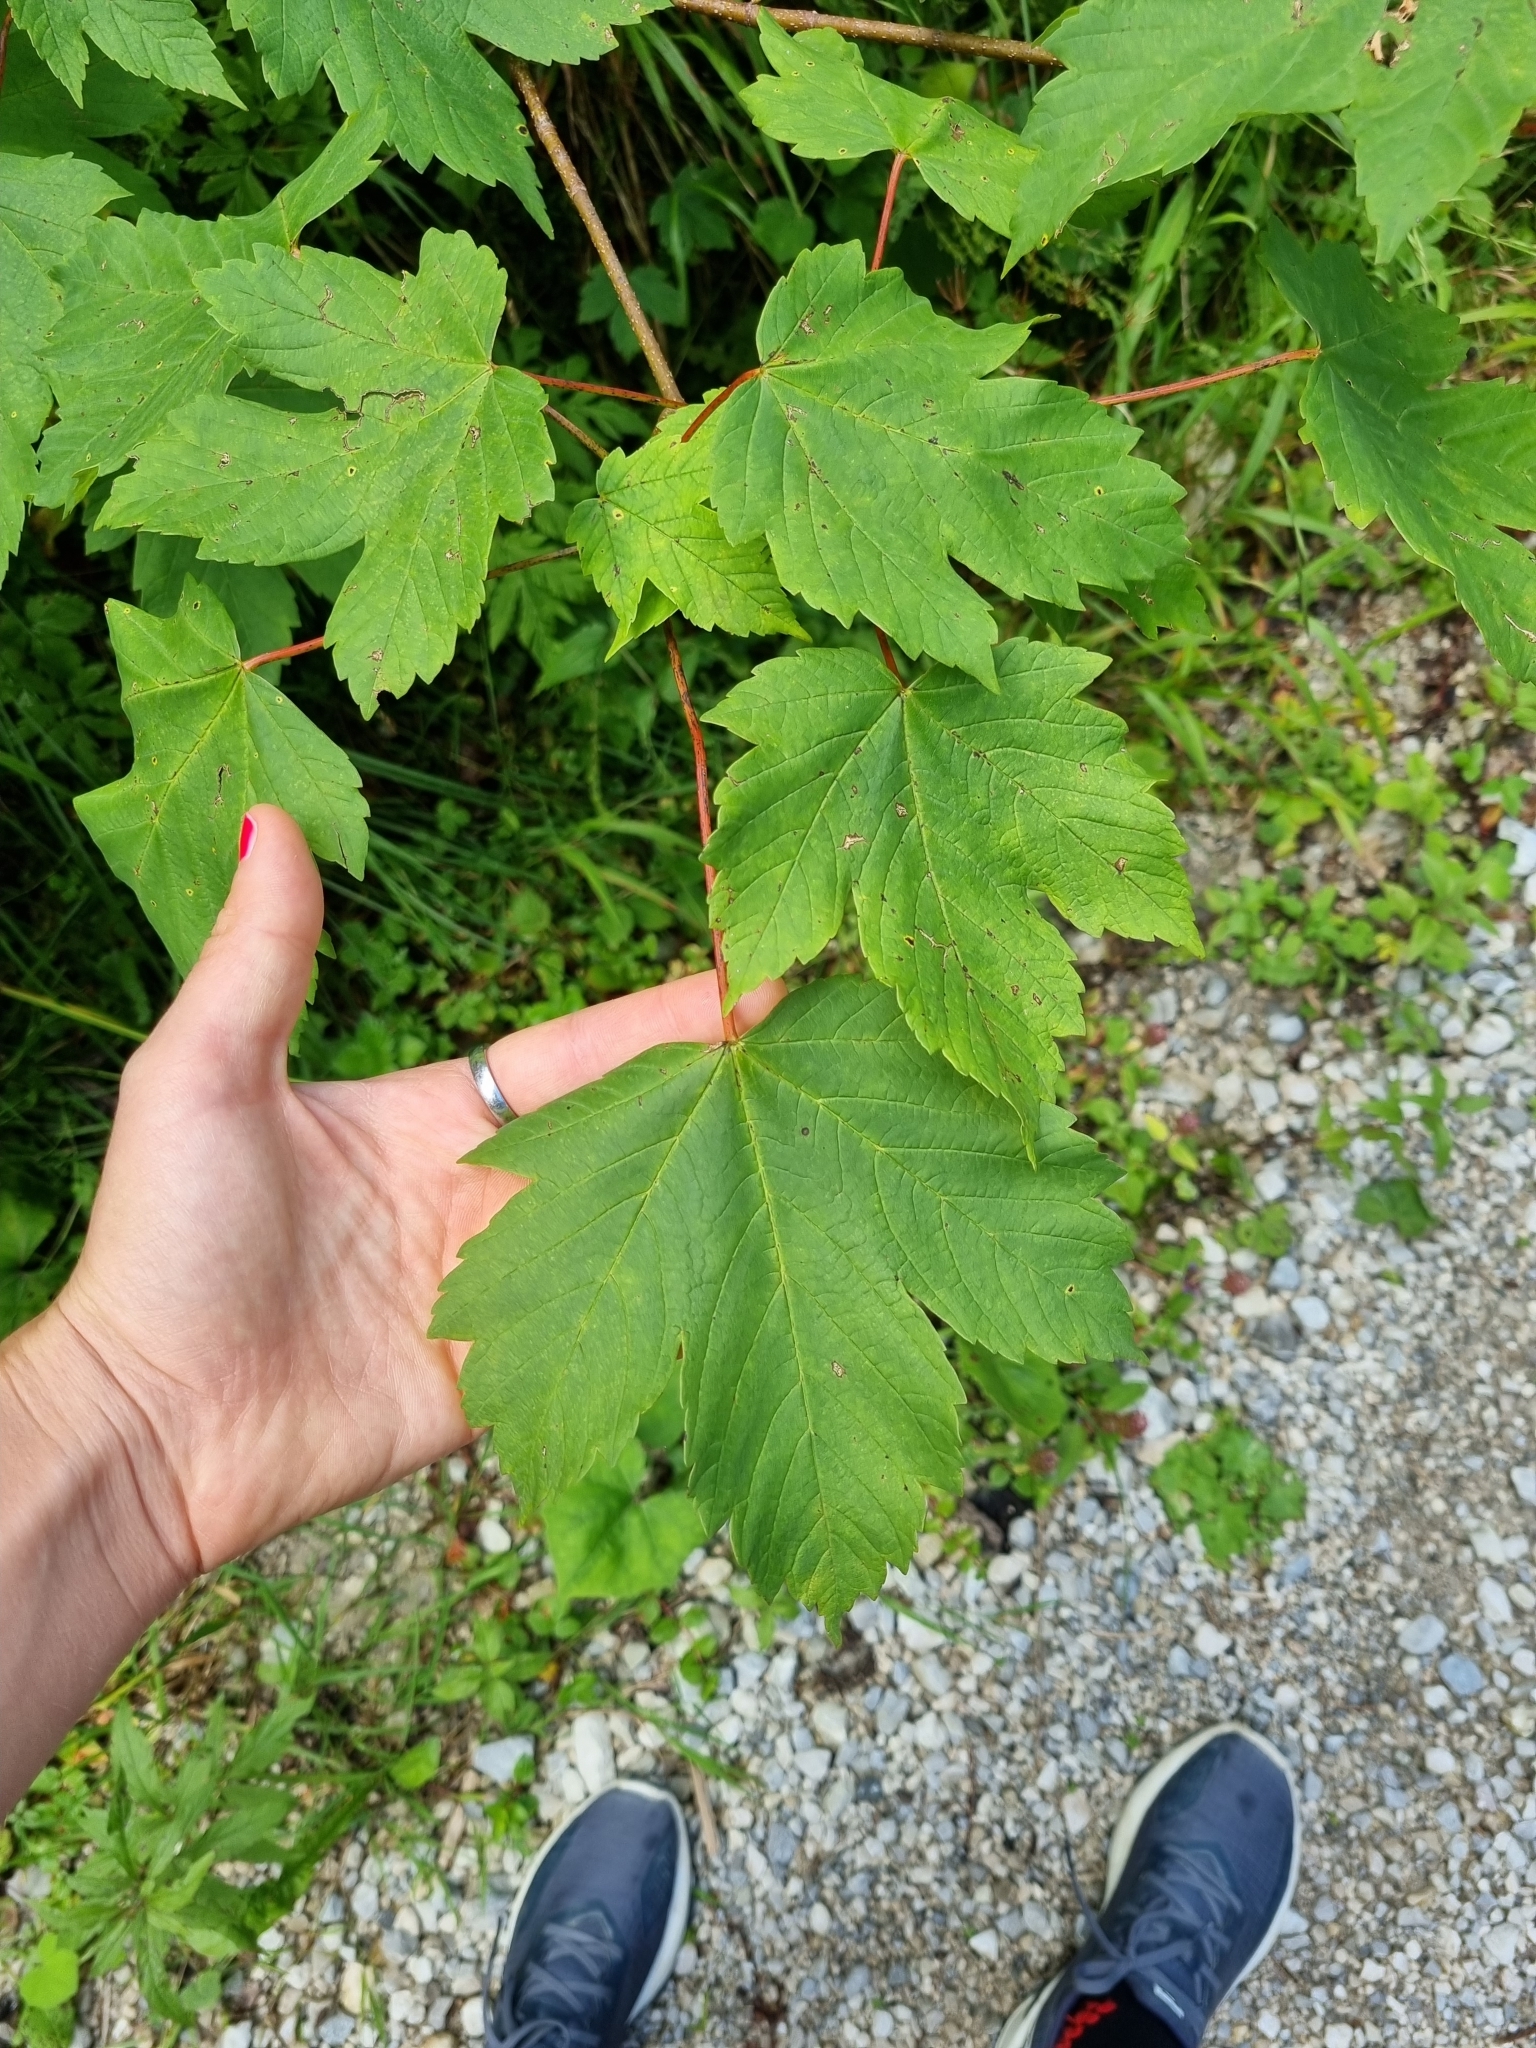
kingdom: Plantae
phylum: Tracheophyta
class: Magnoliopsida
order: Sapindales
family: Sapindaceae
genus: Acer
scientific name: Acer pseudoplatanus
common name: Sycamore
